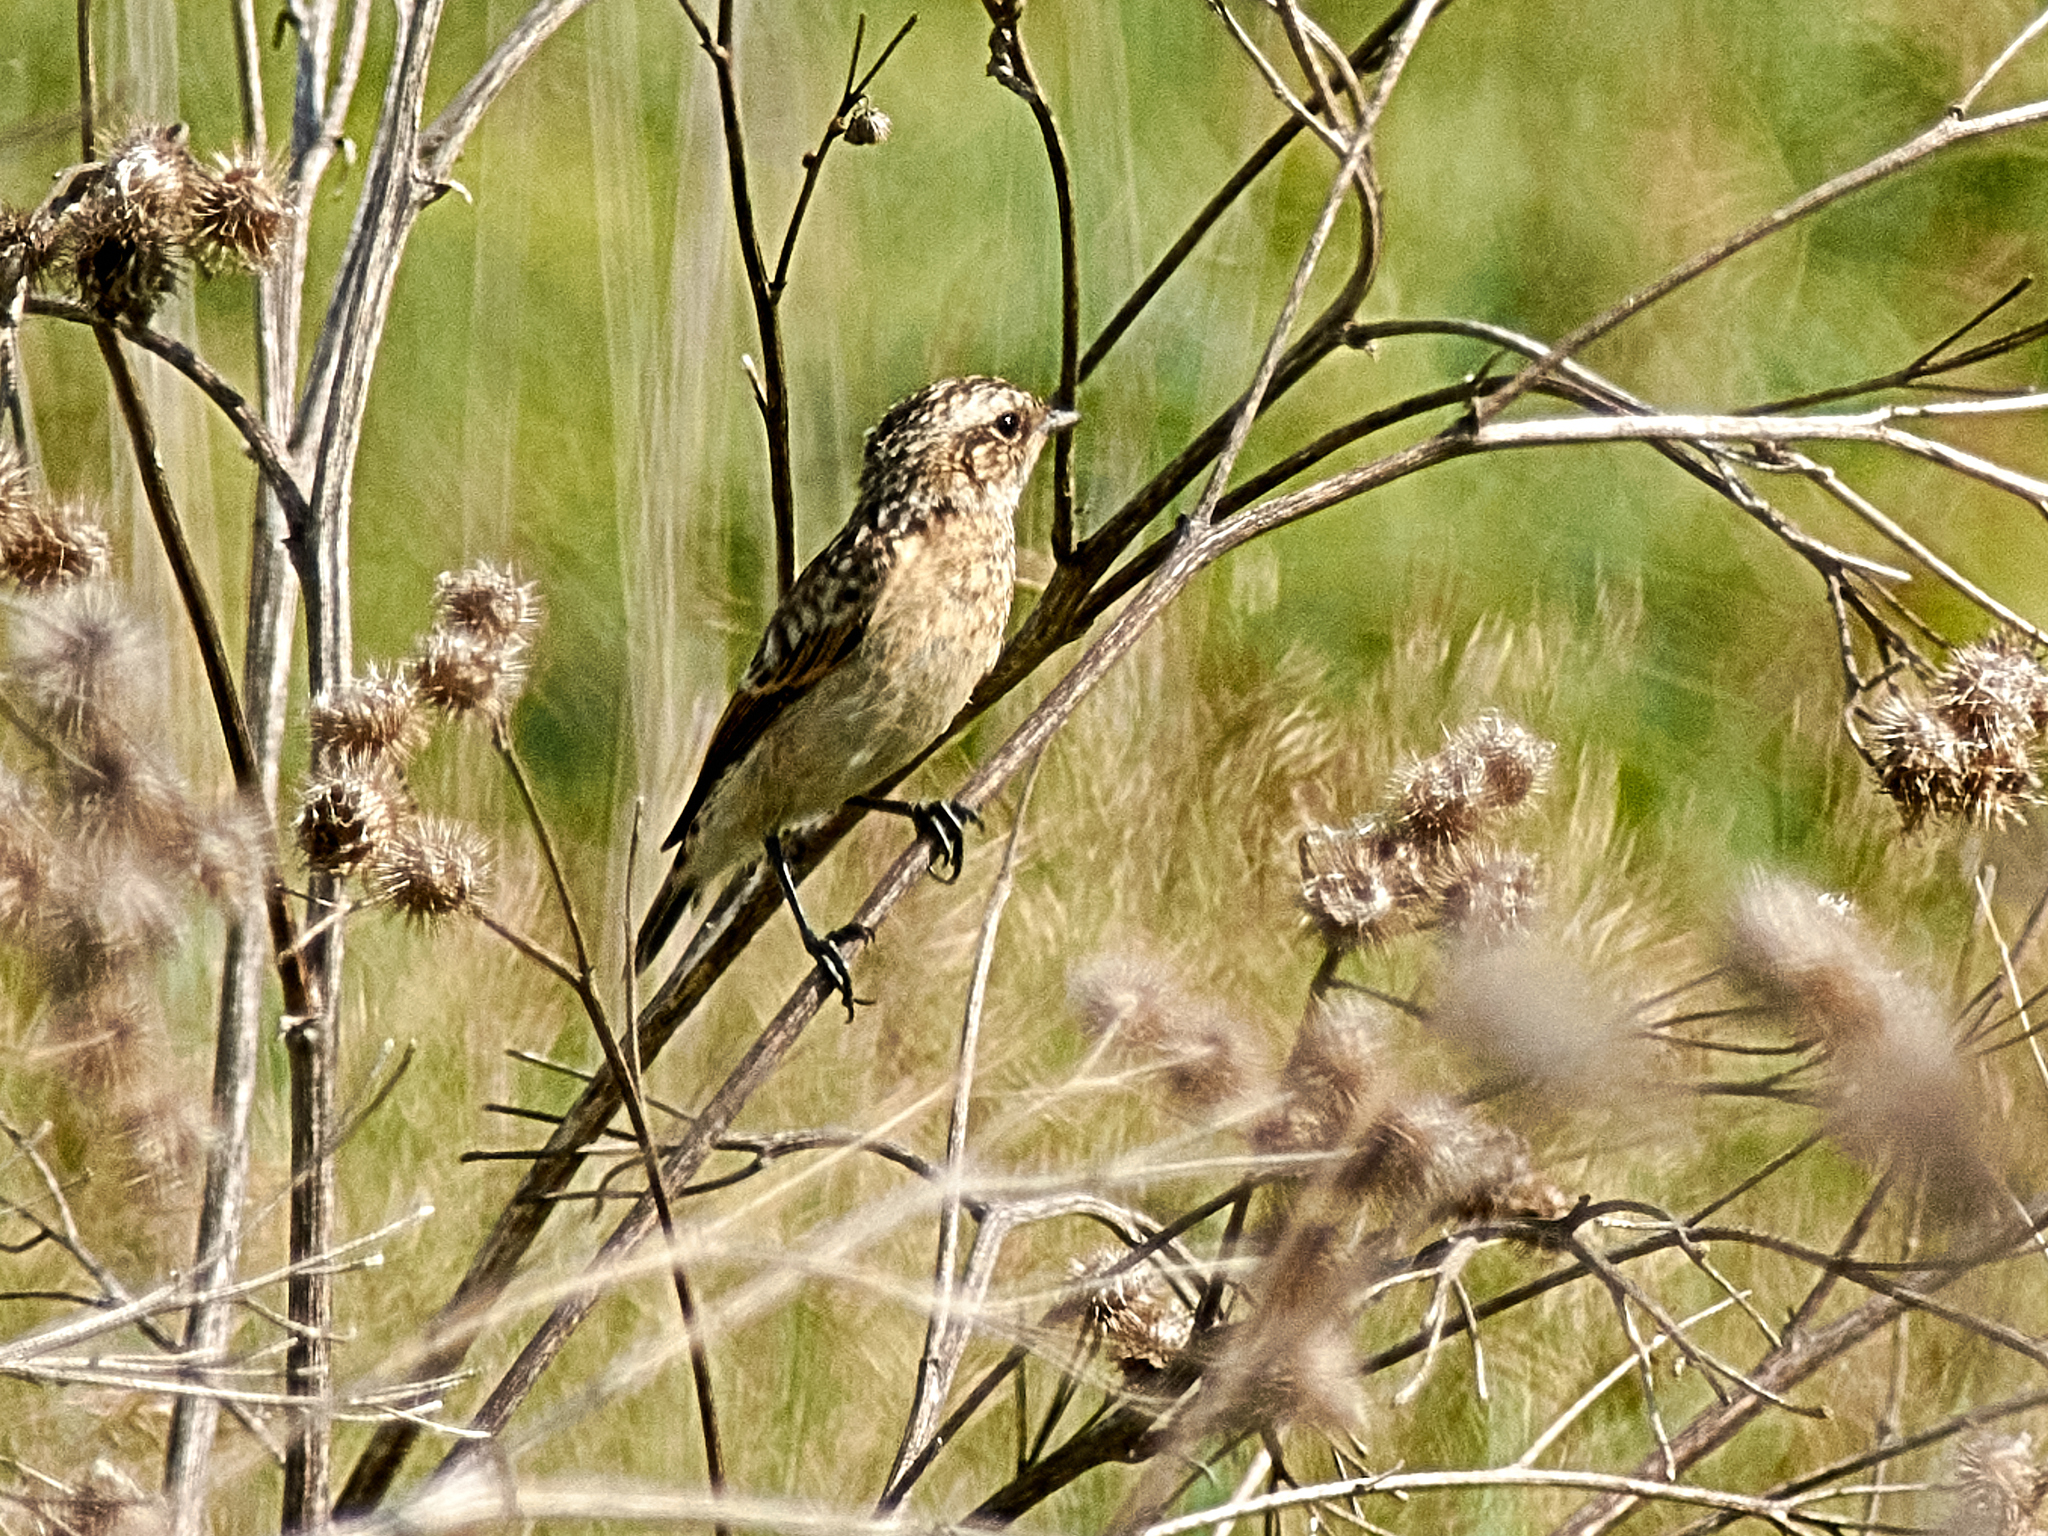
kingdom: Animalia
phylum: Chordata
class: Aves
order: Passeriformes
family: Muscicapidae
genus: Saxicola
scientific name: Saxicola rubetra
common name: Whinchat
